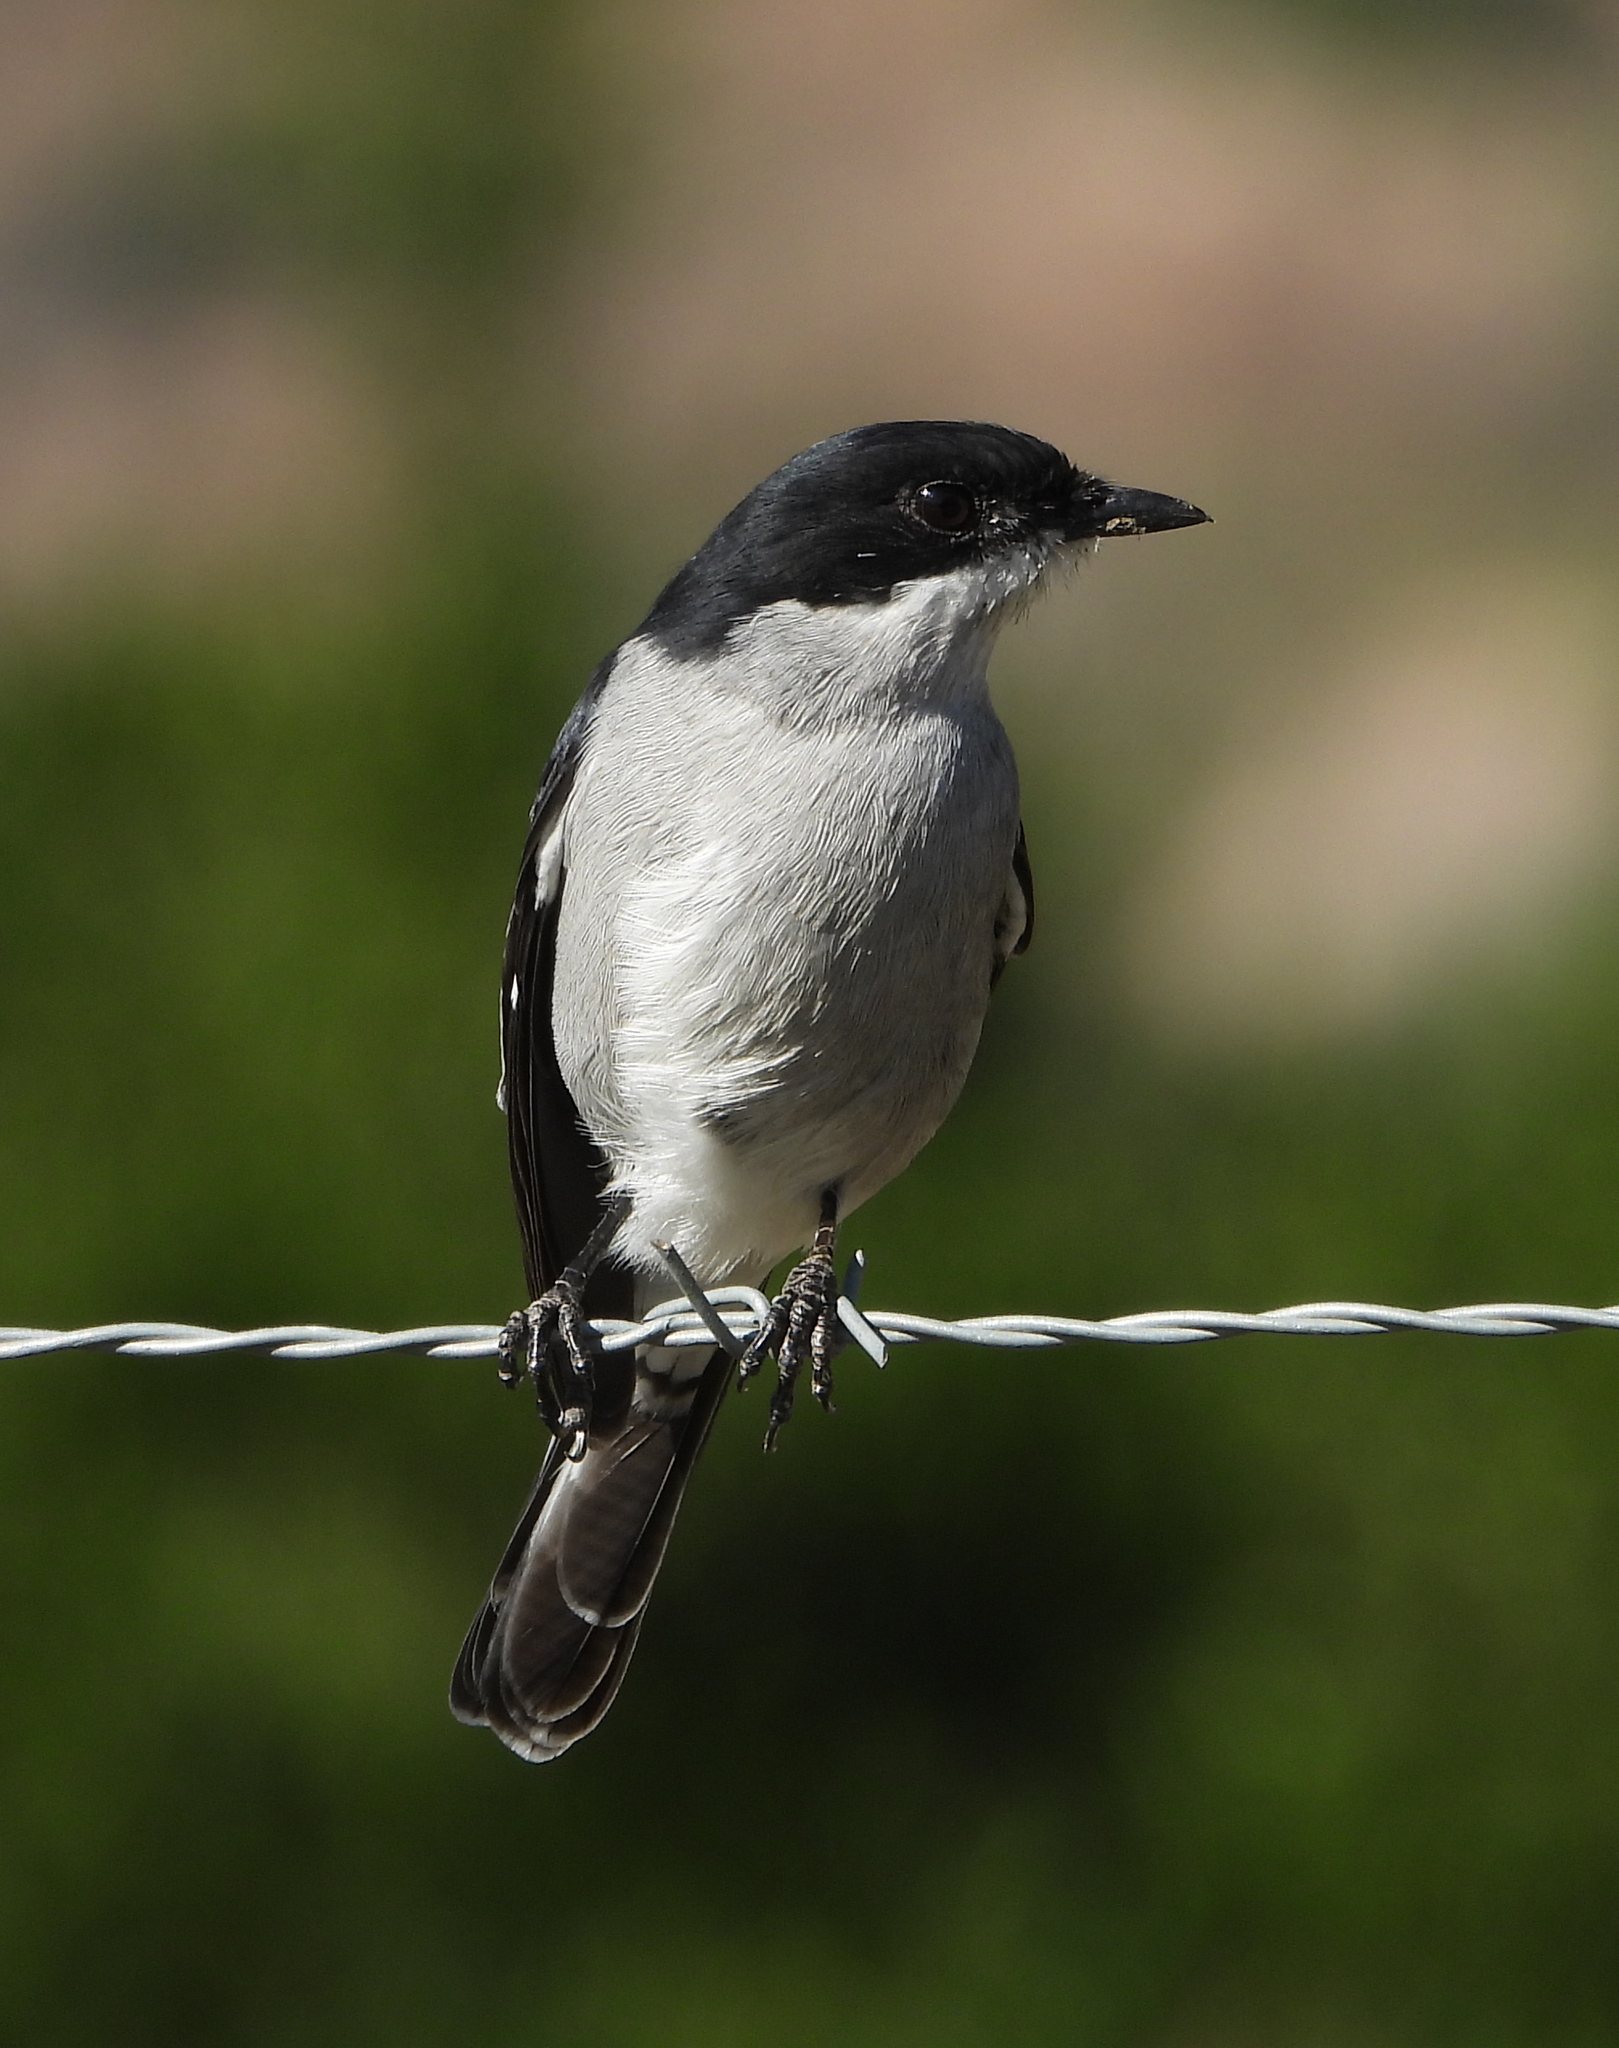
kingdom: Animalia
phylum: Chordata
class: Aves
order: Passeriformes
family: Muscicapidae
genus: Sigelus
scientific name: Sigelus silens
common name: Fiscal flycatcher
